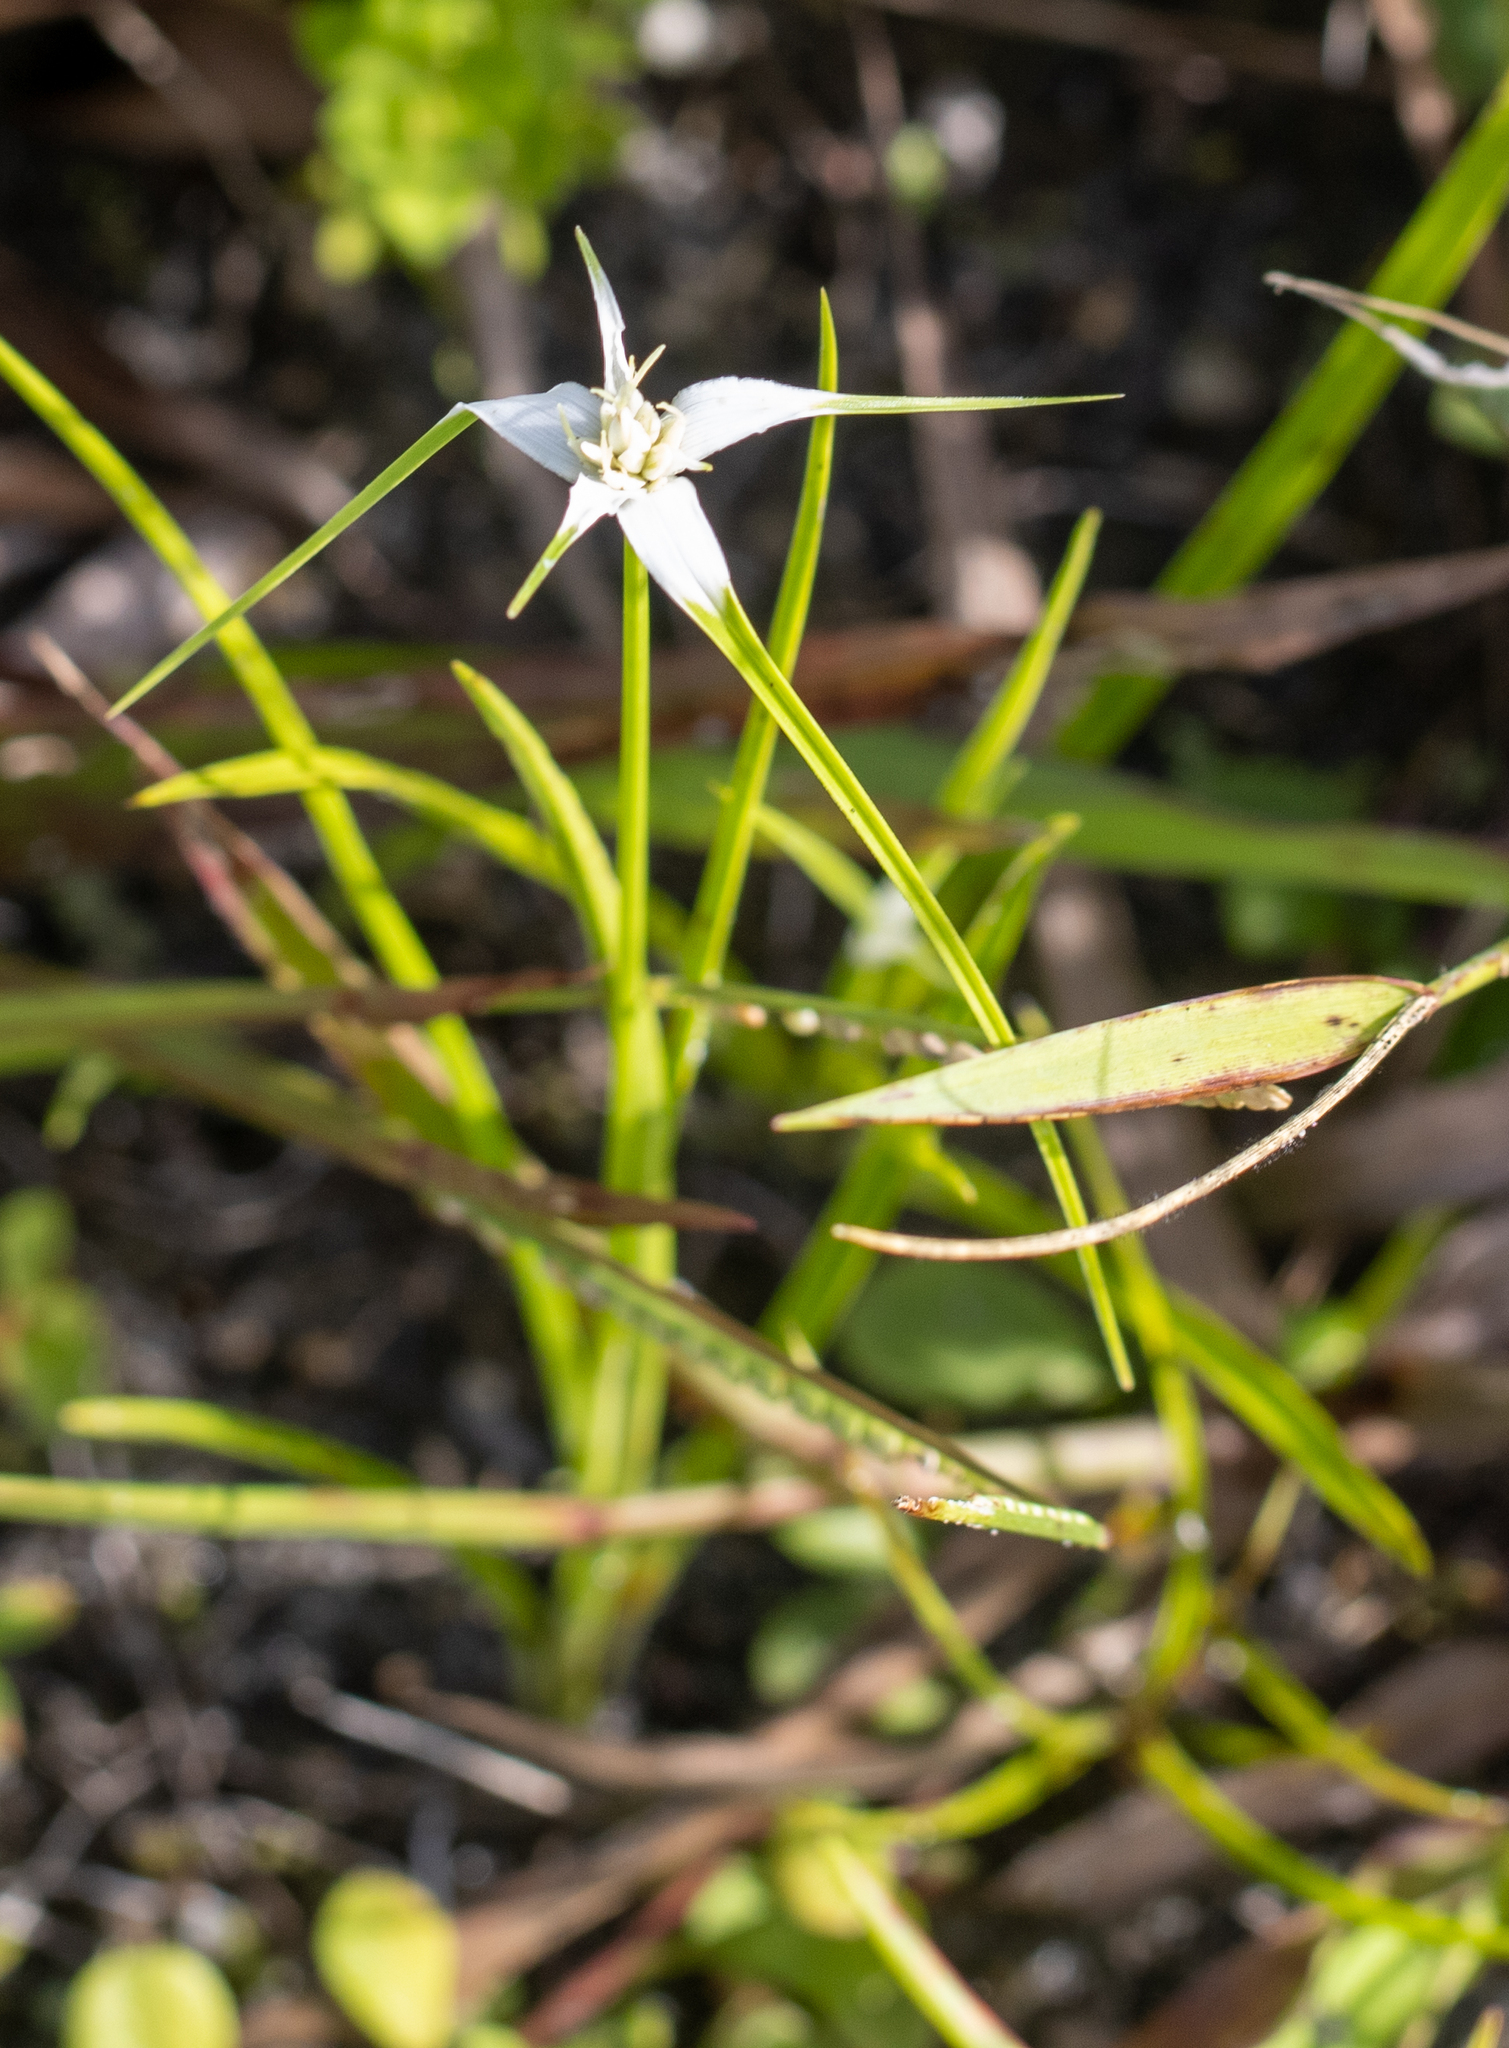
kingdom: Plantae
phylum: Tracheophyta
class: Liliopsida
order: Poales
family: Cyperaceae
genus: Rhynchospora
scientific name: Rhynchospora colorata
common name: Star sedge
